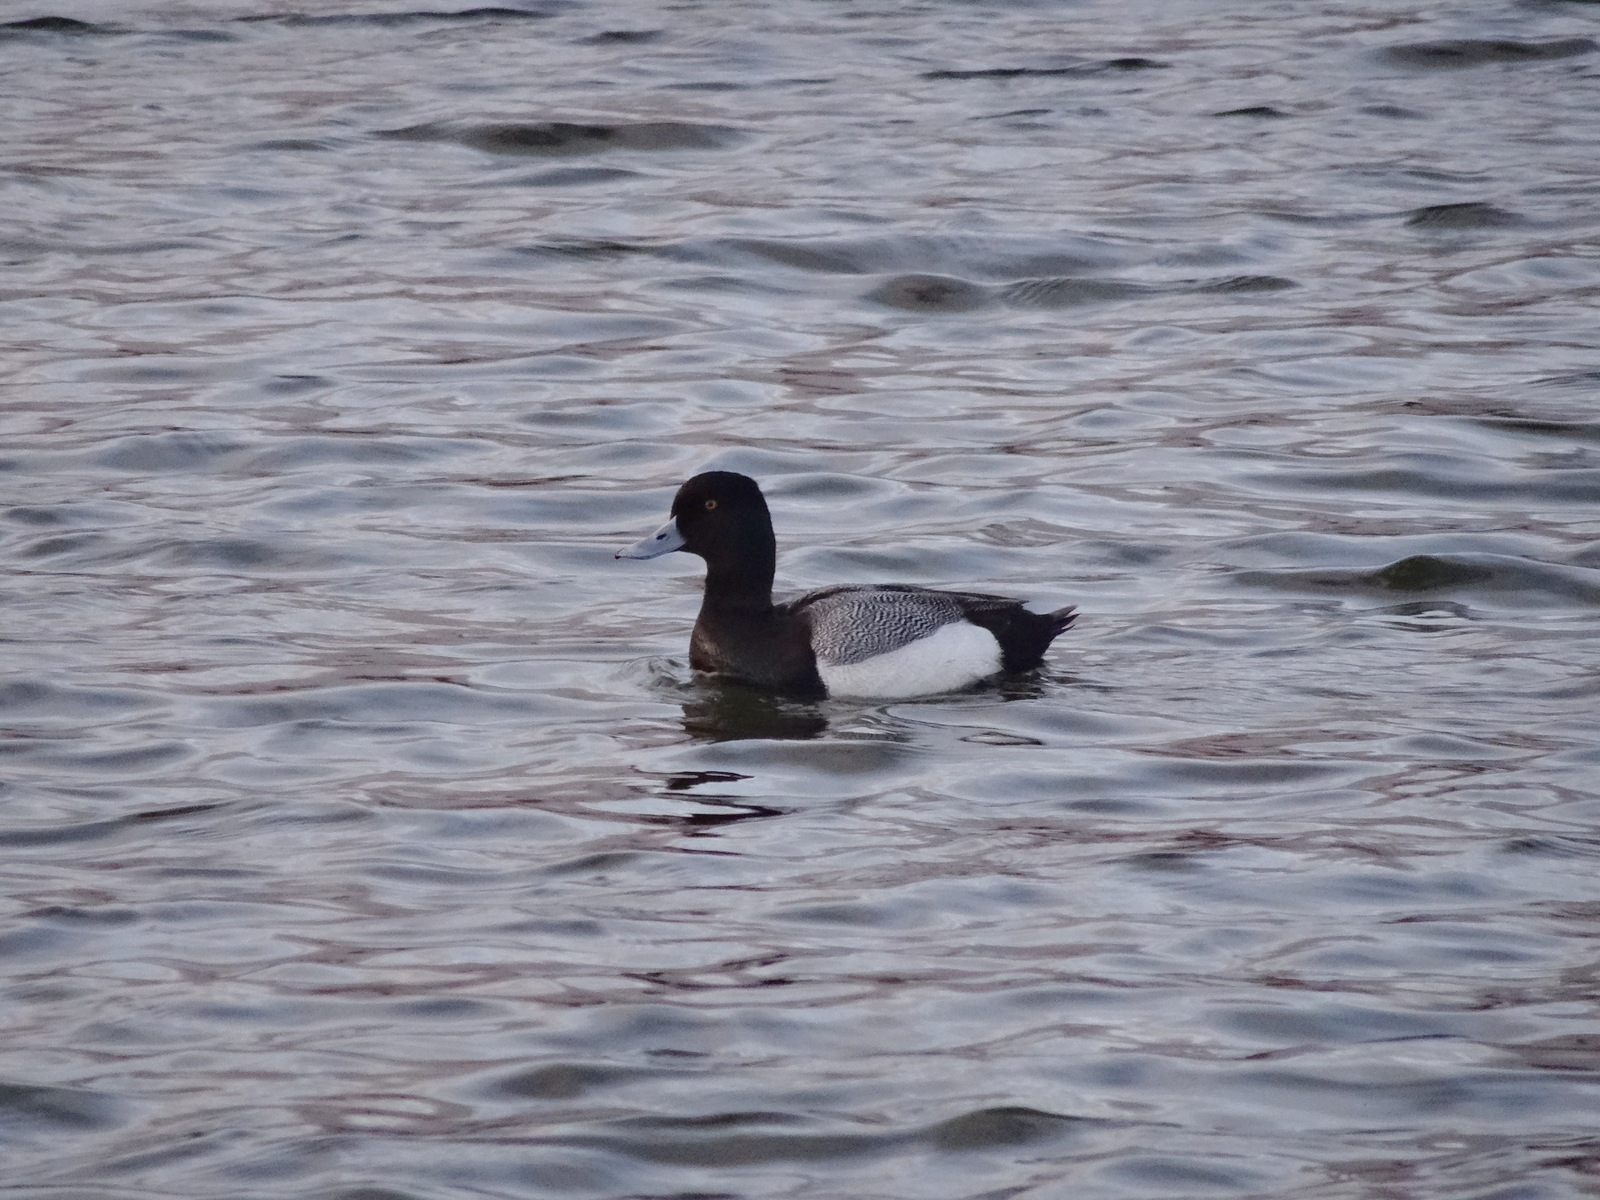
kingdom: Animalia
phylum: Chordata
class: Aves
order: Anseriformes
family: Anatidae
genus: Aythya
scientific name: Aythya affinis
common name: Lesser scaup
